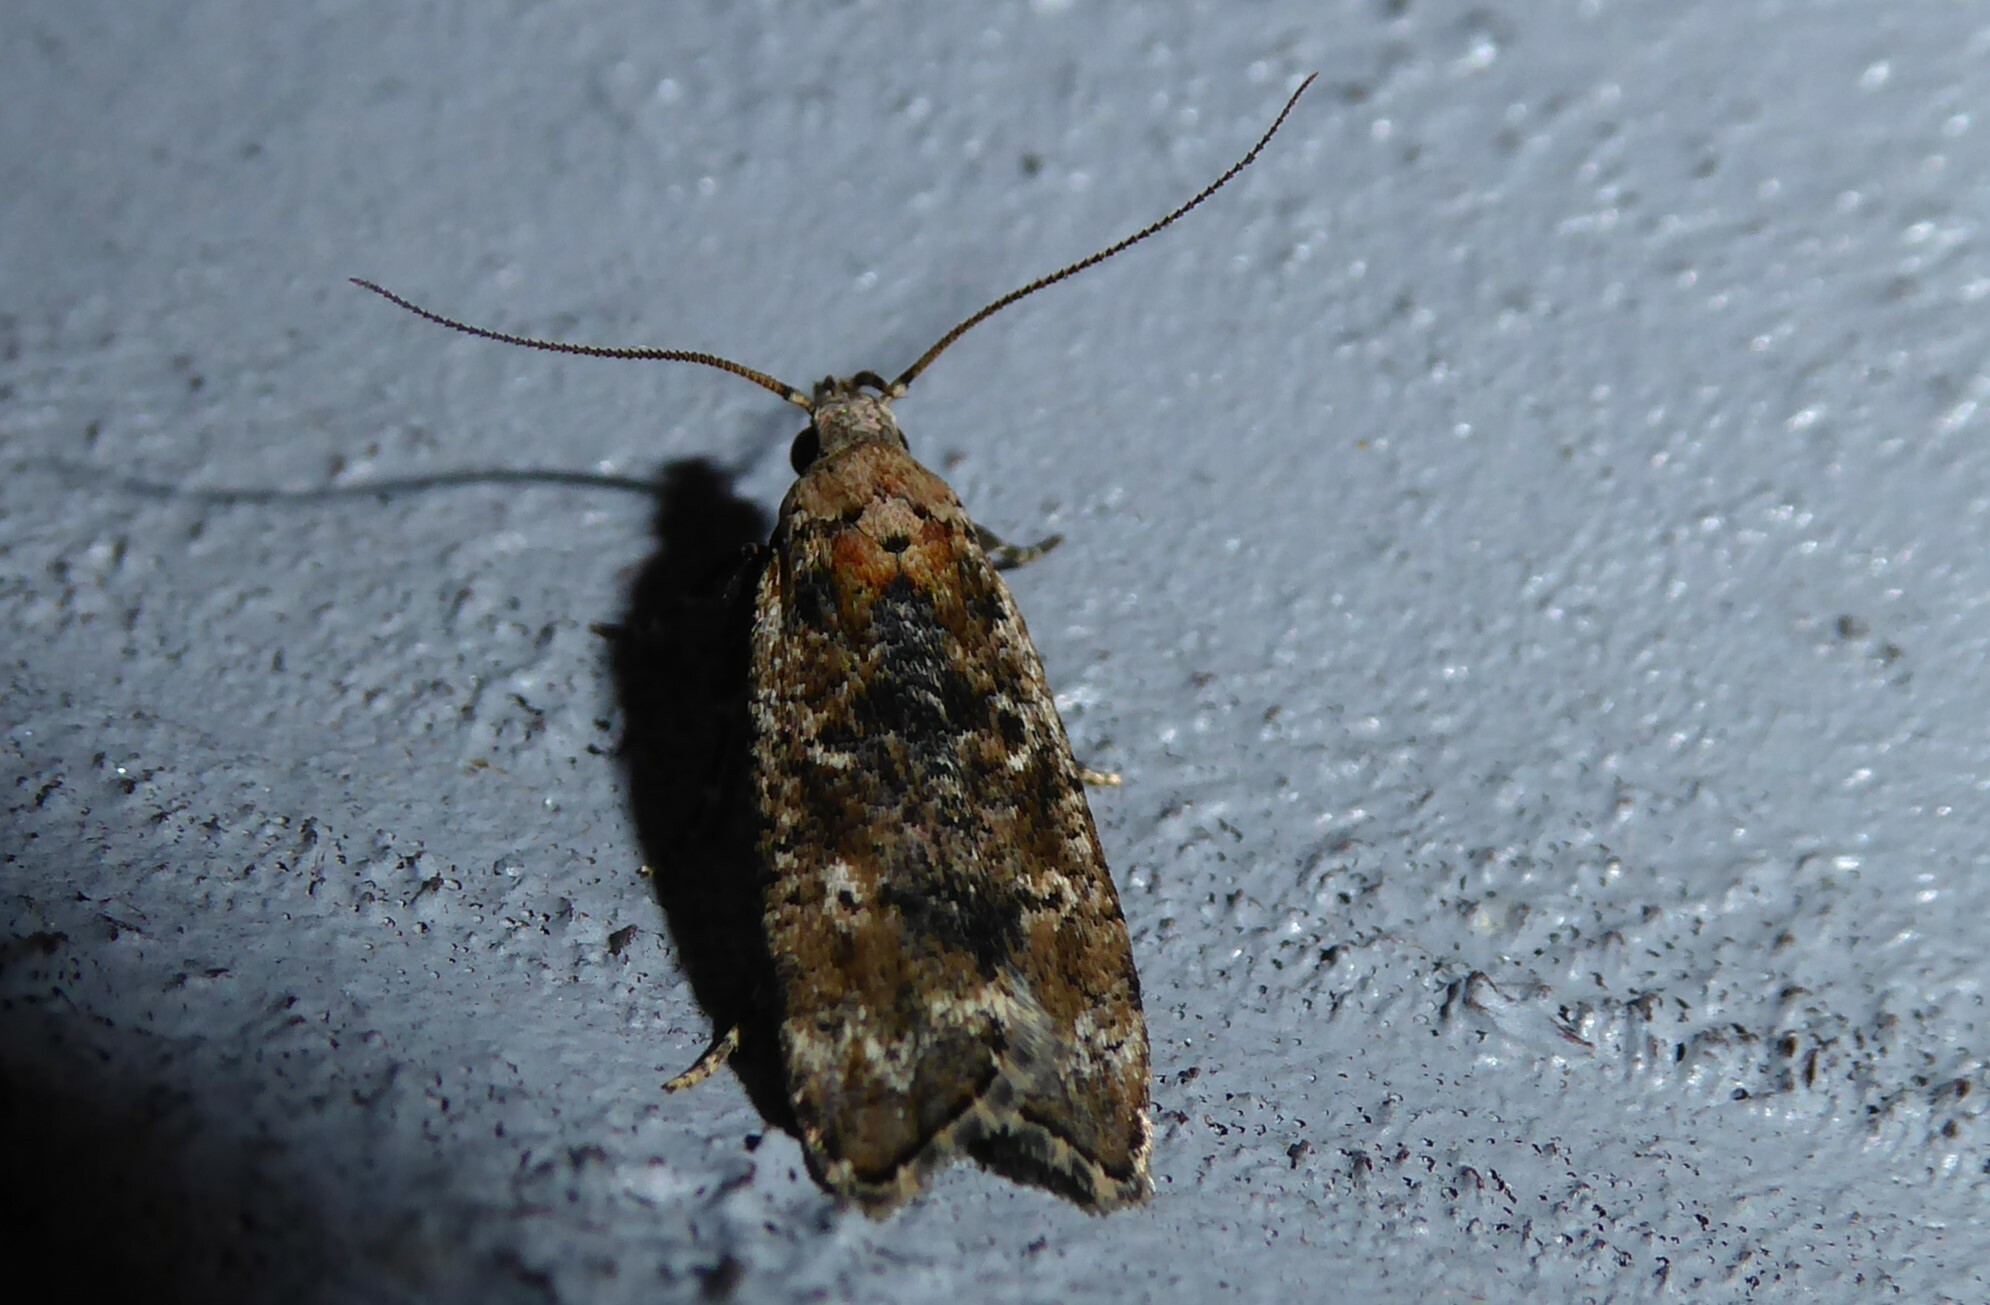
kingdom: Animalia
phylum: Arthropoda
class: Insecta
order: Lepidoptera
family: Gelechiidae
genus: Anisoplaca
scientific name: Anisoplaca achyrota
